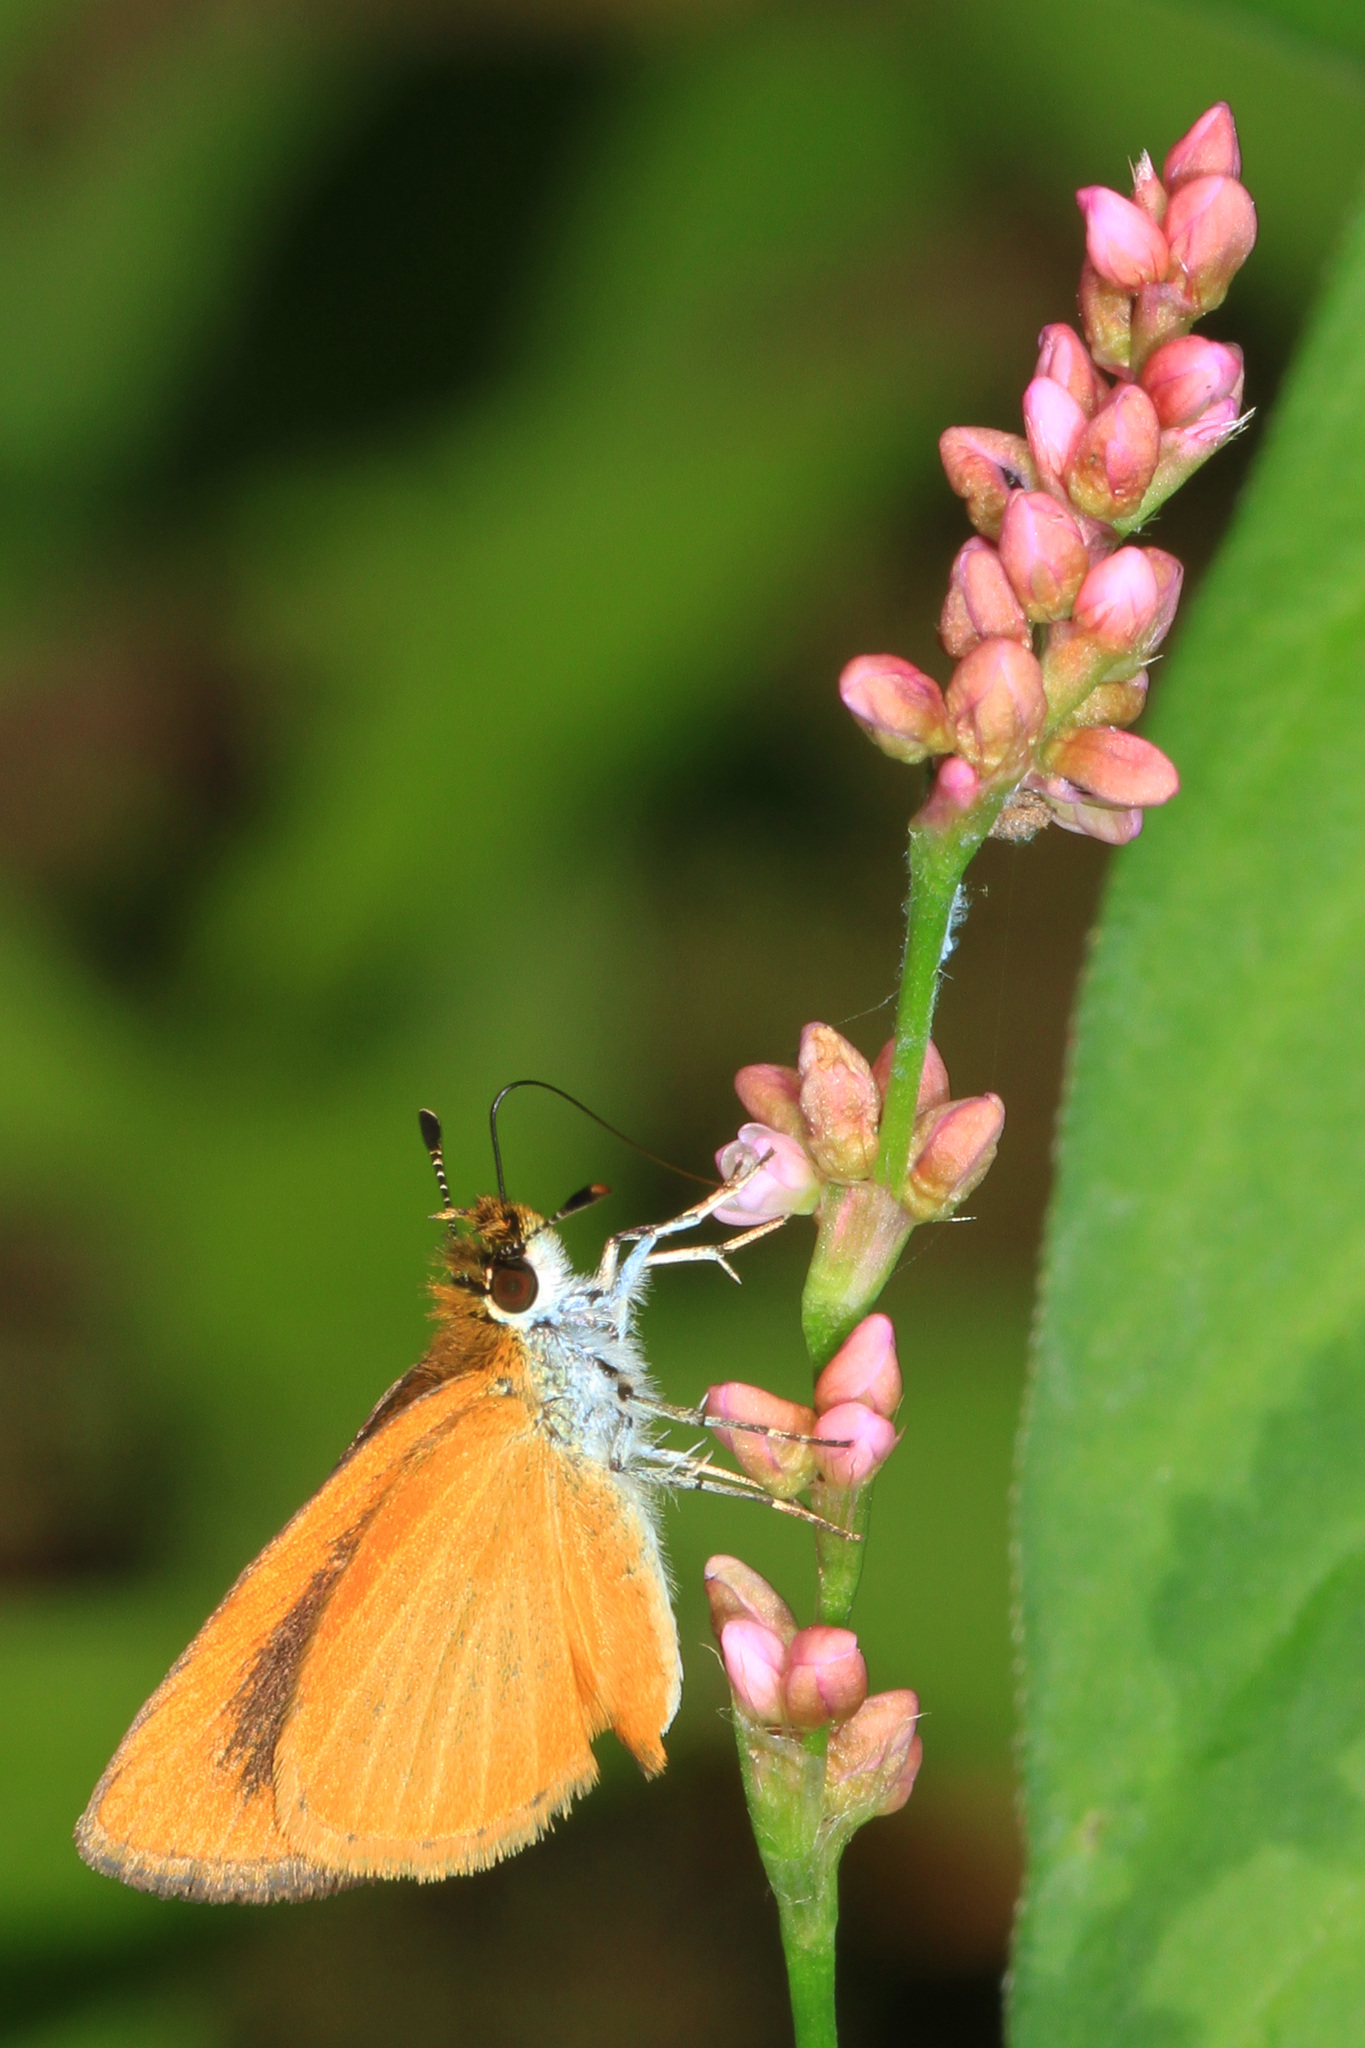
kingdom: Animalia
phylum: Arthropoda
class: Insecta
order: Lepidoptera
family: Hesperiidae
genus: Ancyloxypha
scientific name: Ancyloxypha numitor
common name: Least skipper
